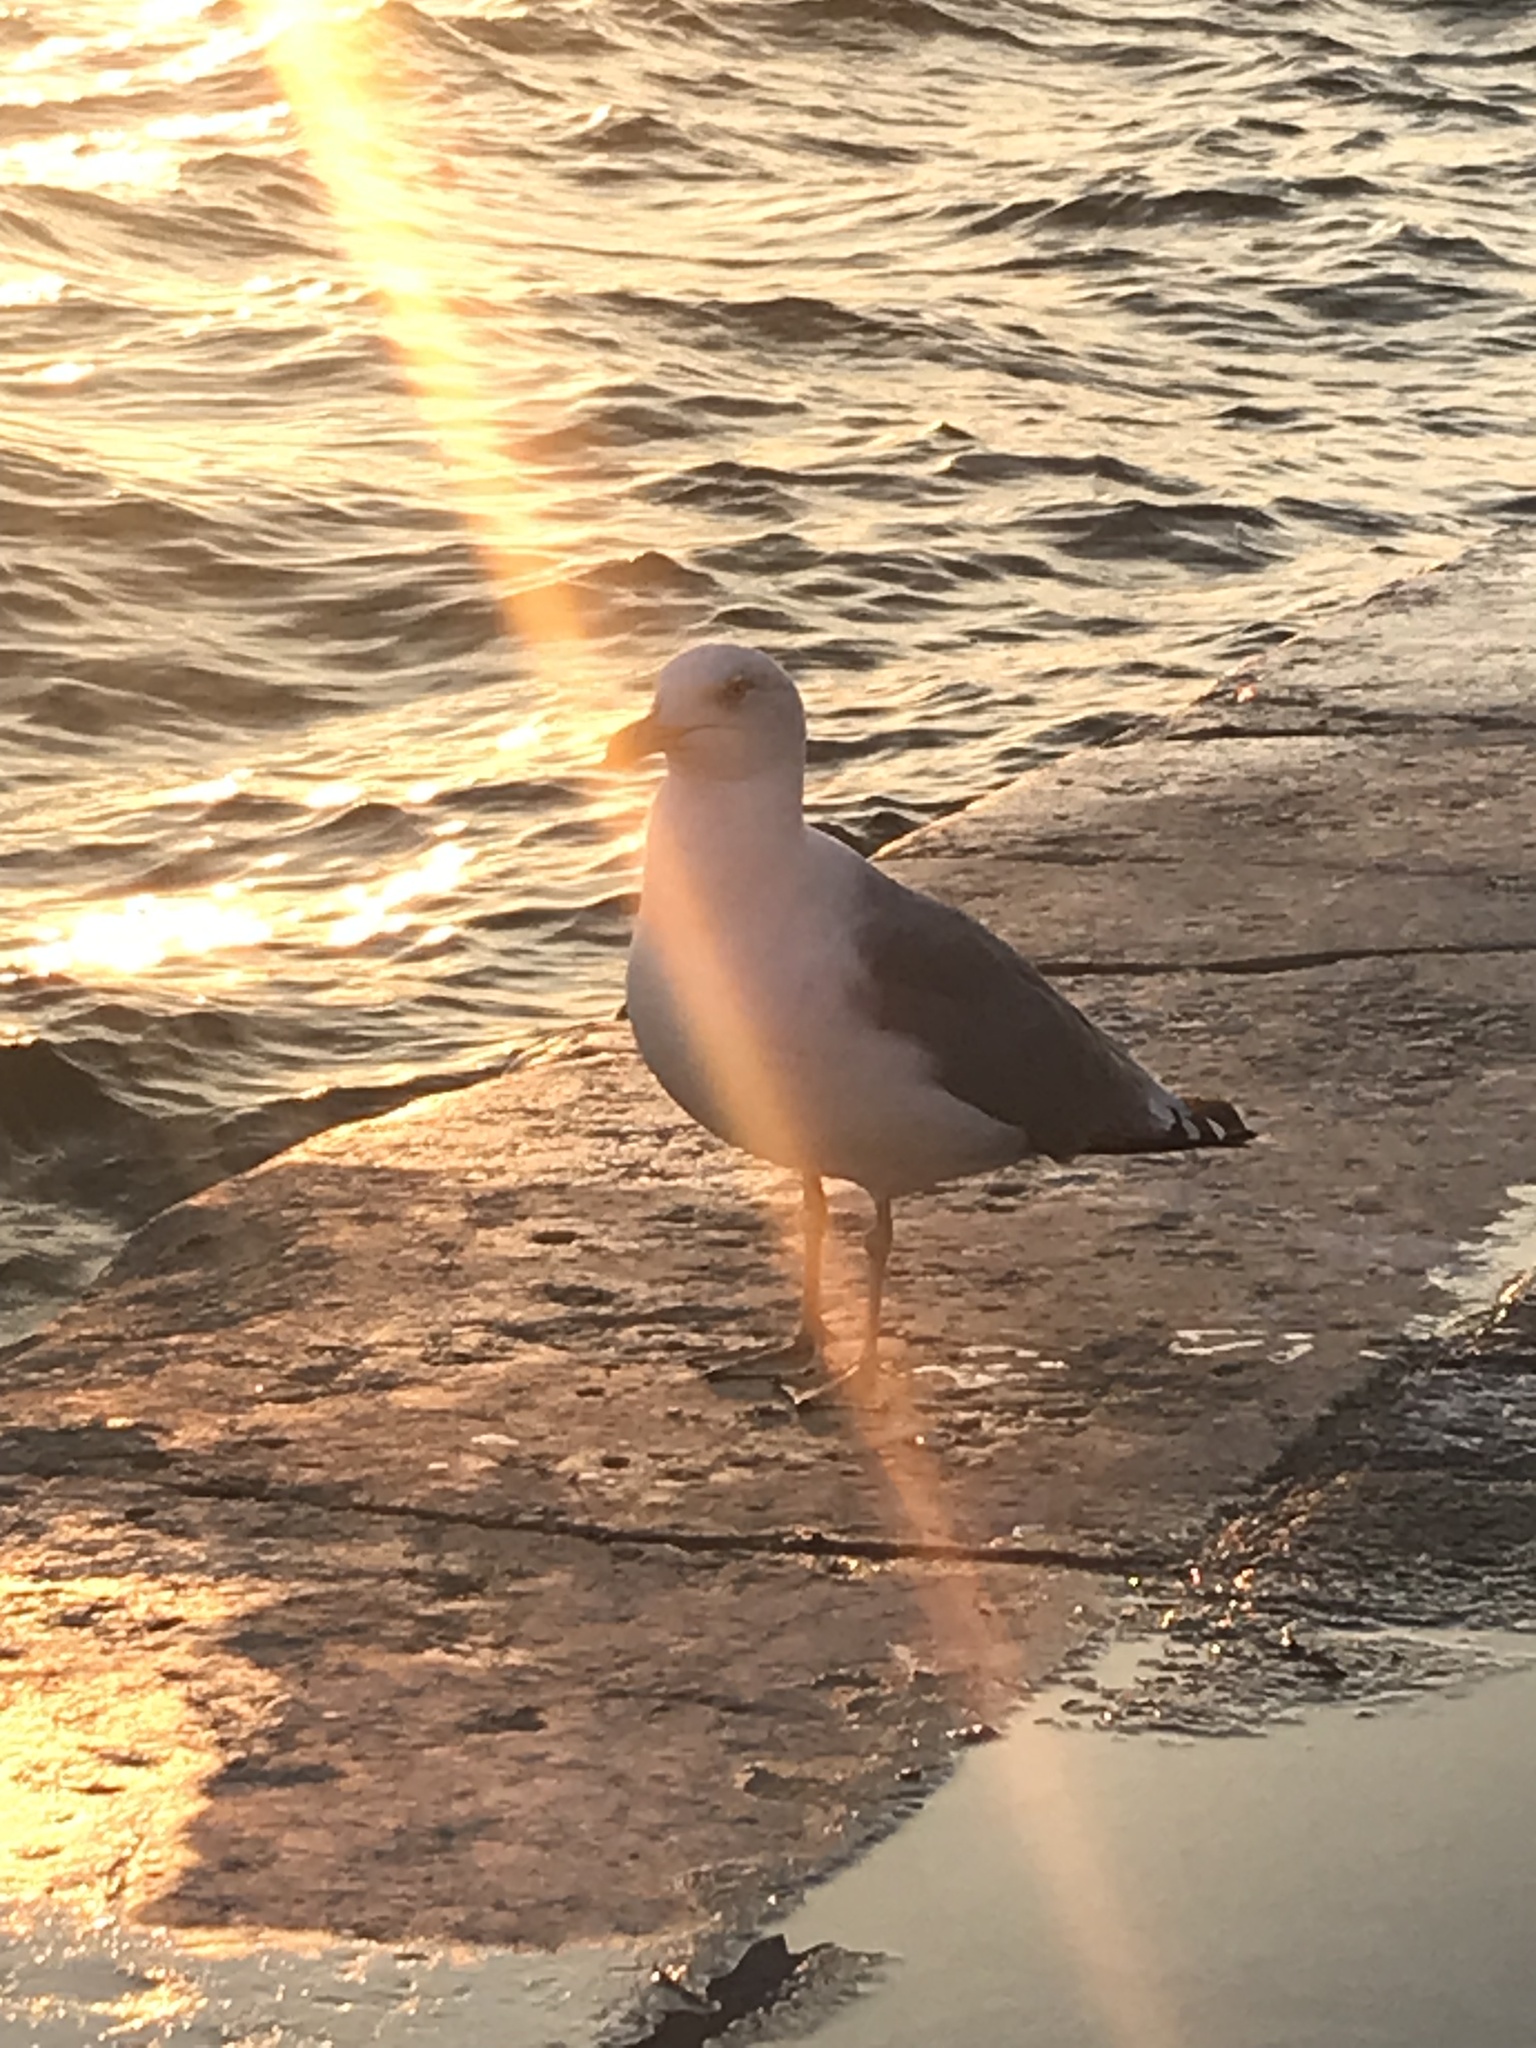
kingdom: Animalia
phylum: Chordata
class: Aves
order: Charadriiformes
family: Laridae
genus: Larus
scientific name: Larus michahellis
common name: Yellow-legged gull
